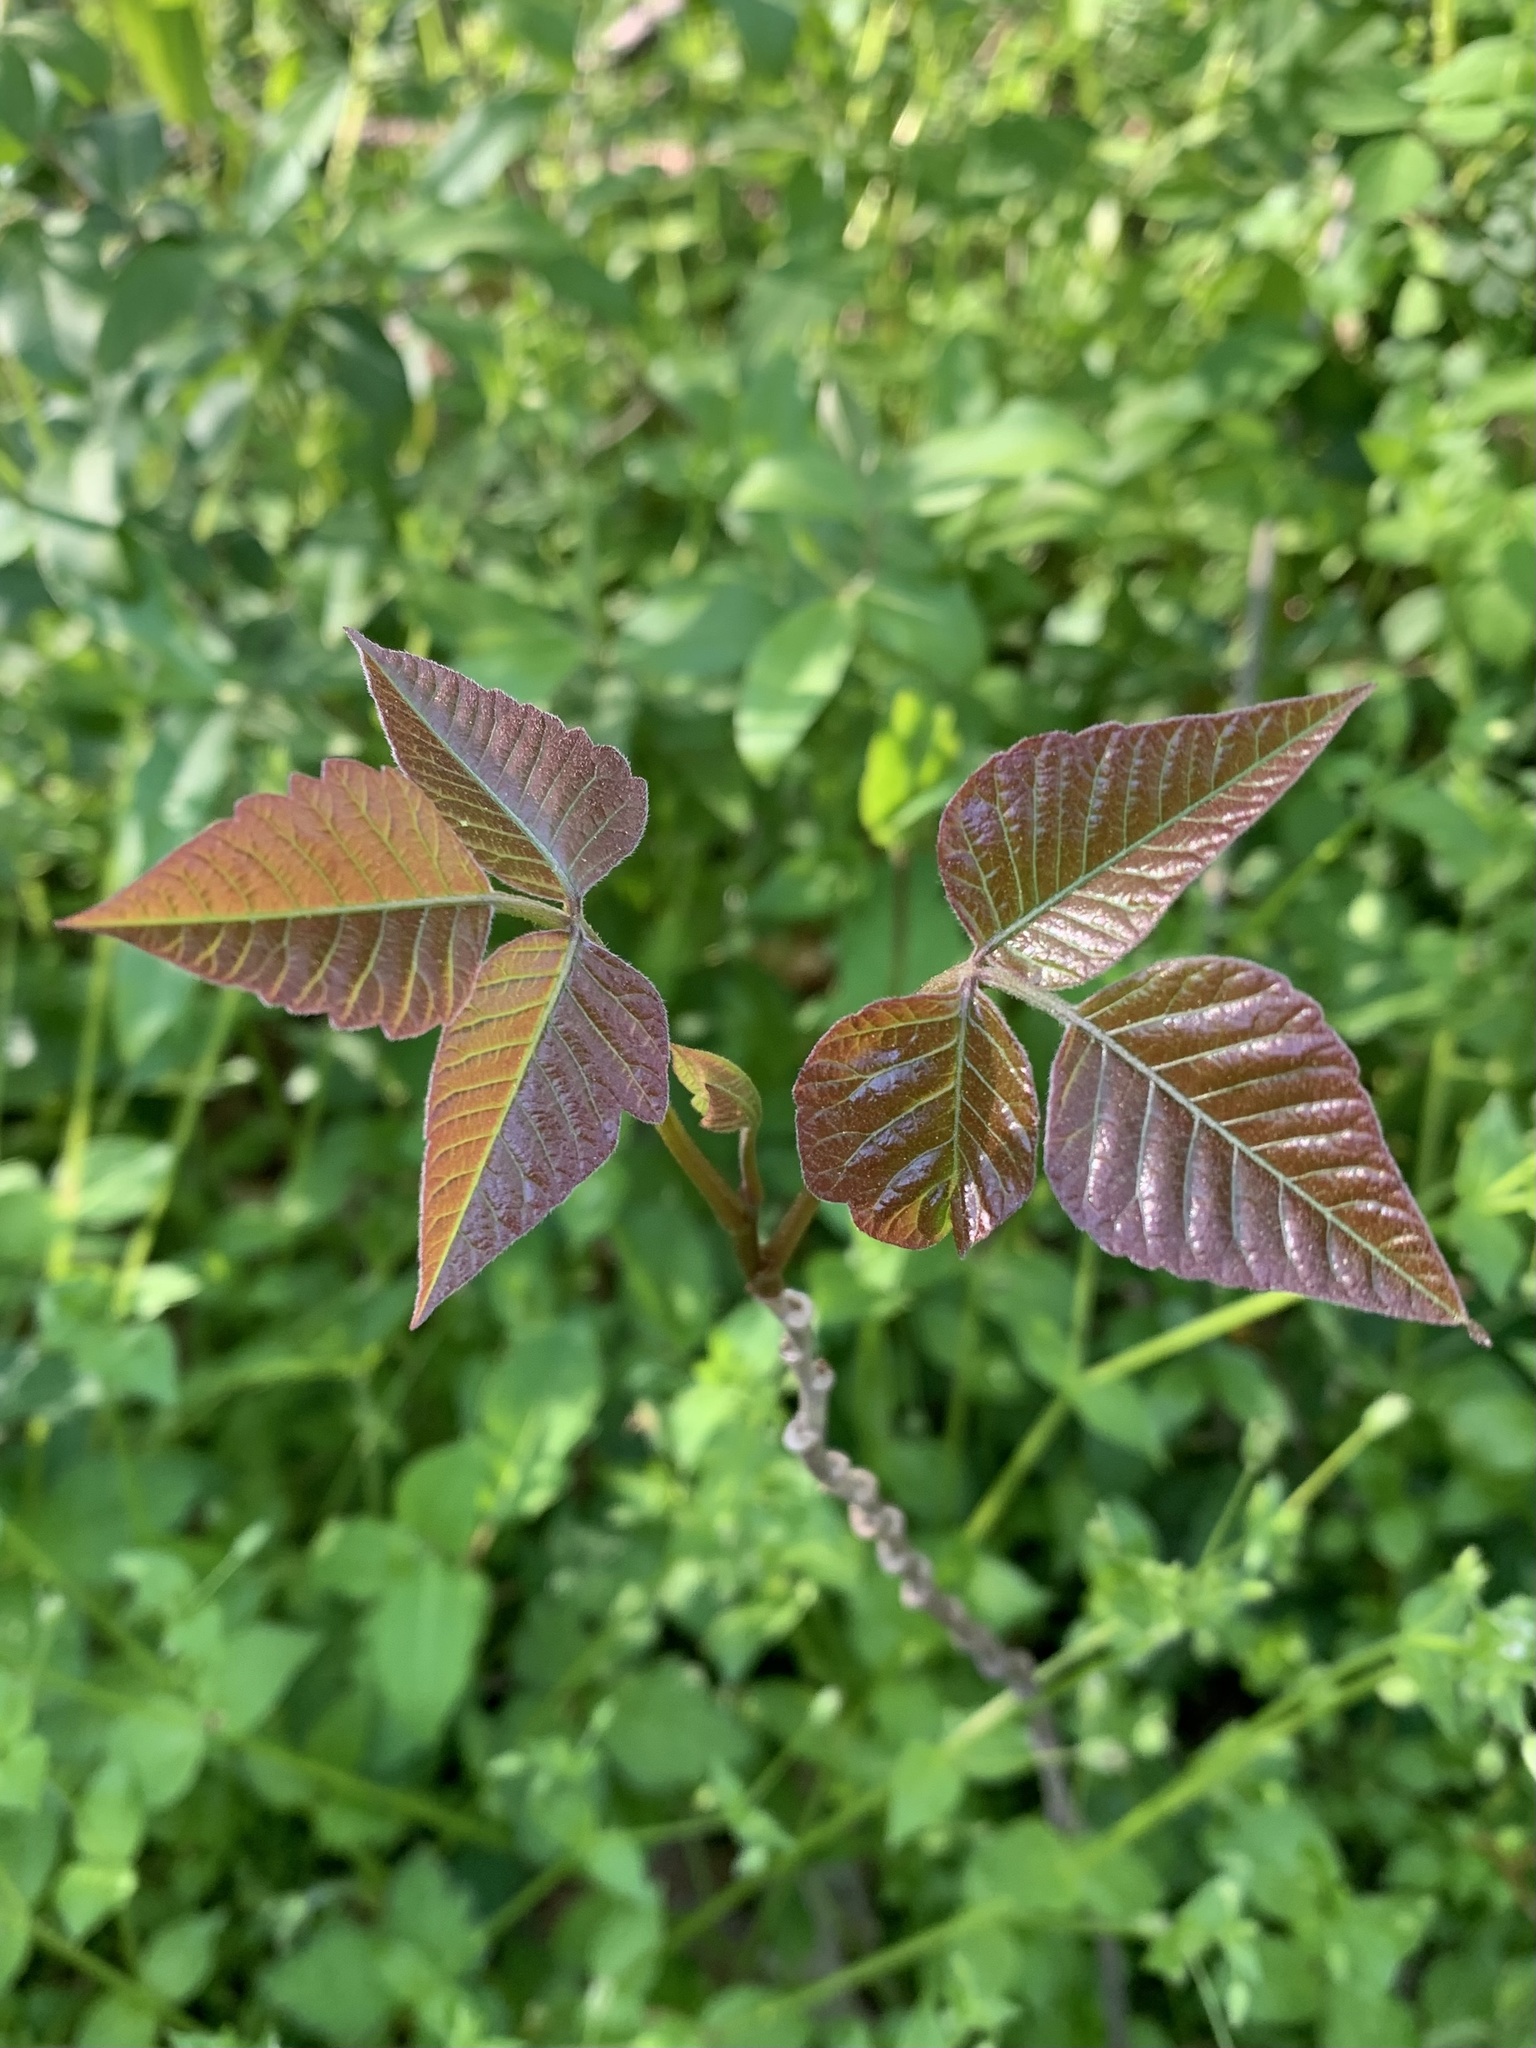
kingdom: Plantae
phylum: Tracheophyta
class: Magnoliopsida
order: Sapindales
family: Anacardiaceae
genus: Toxicodendron
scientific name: Toxicodendron radicans
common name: Poison ivy
